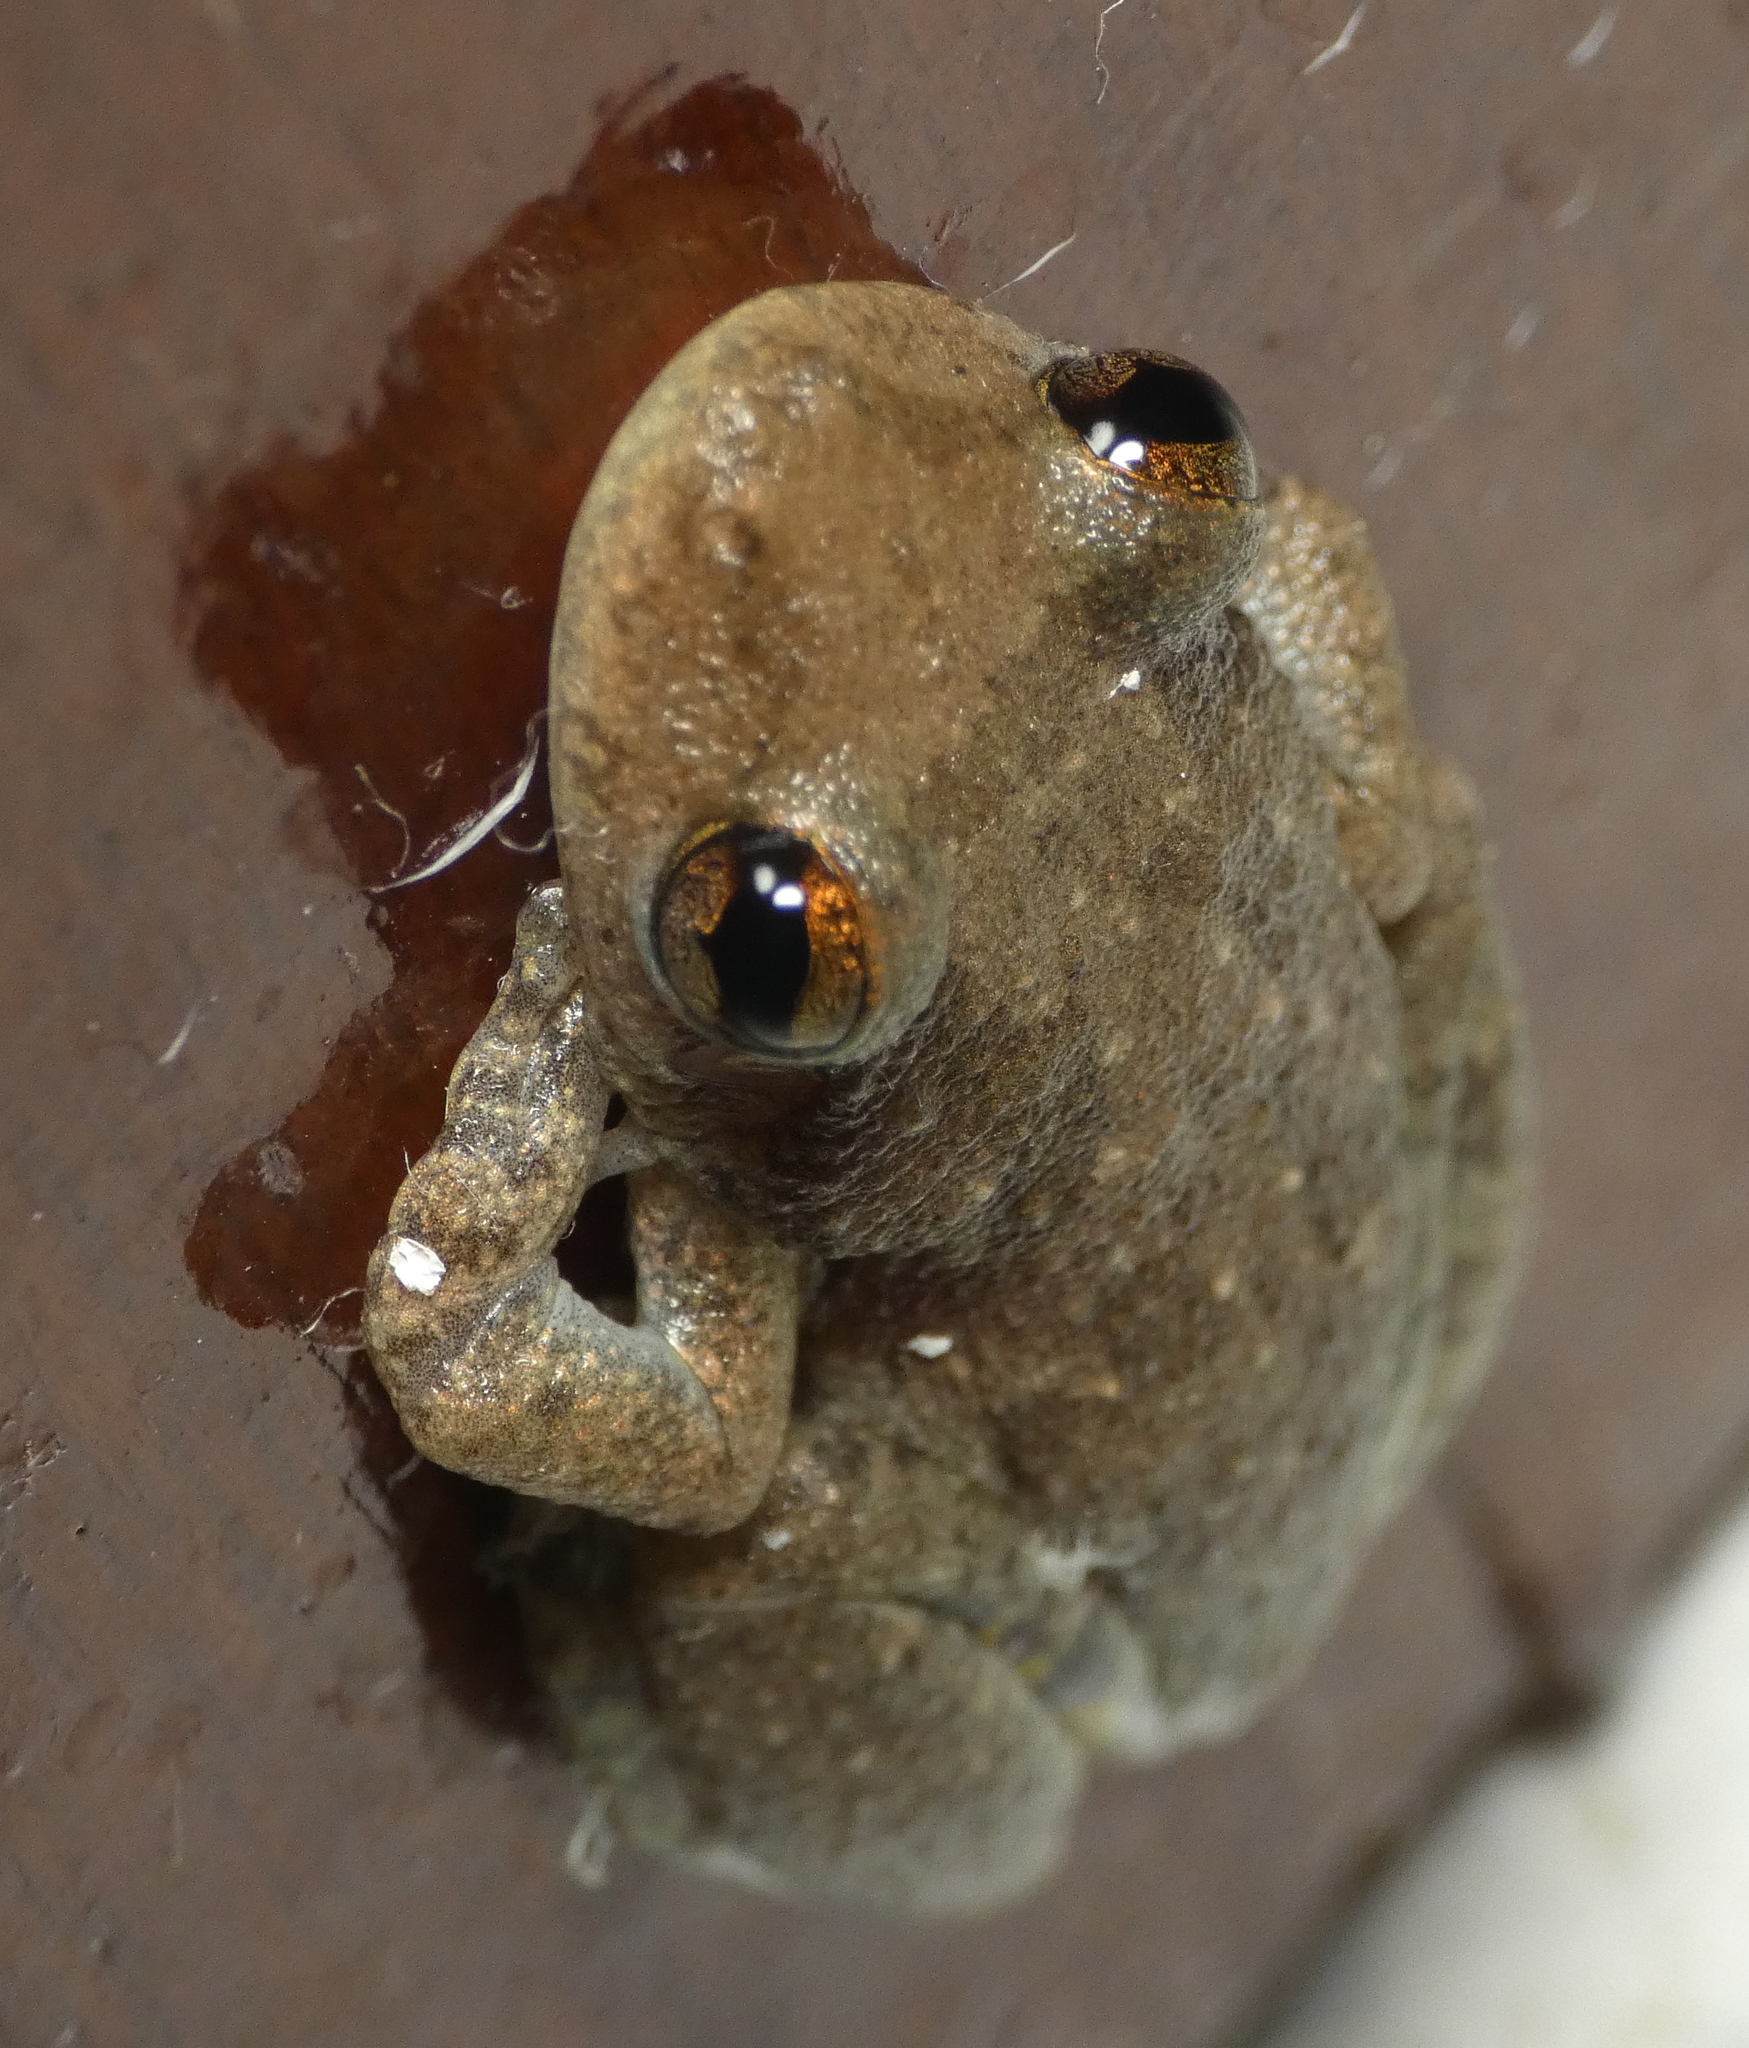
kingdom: Animalia
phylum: Chordata
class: Amphibia
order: Anura
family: Hylidae
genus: Scinax
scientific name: Scinax x-signatus
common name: Venezuela snouted treefrog
